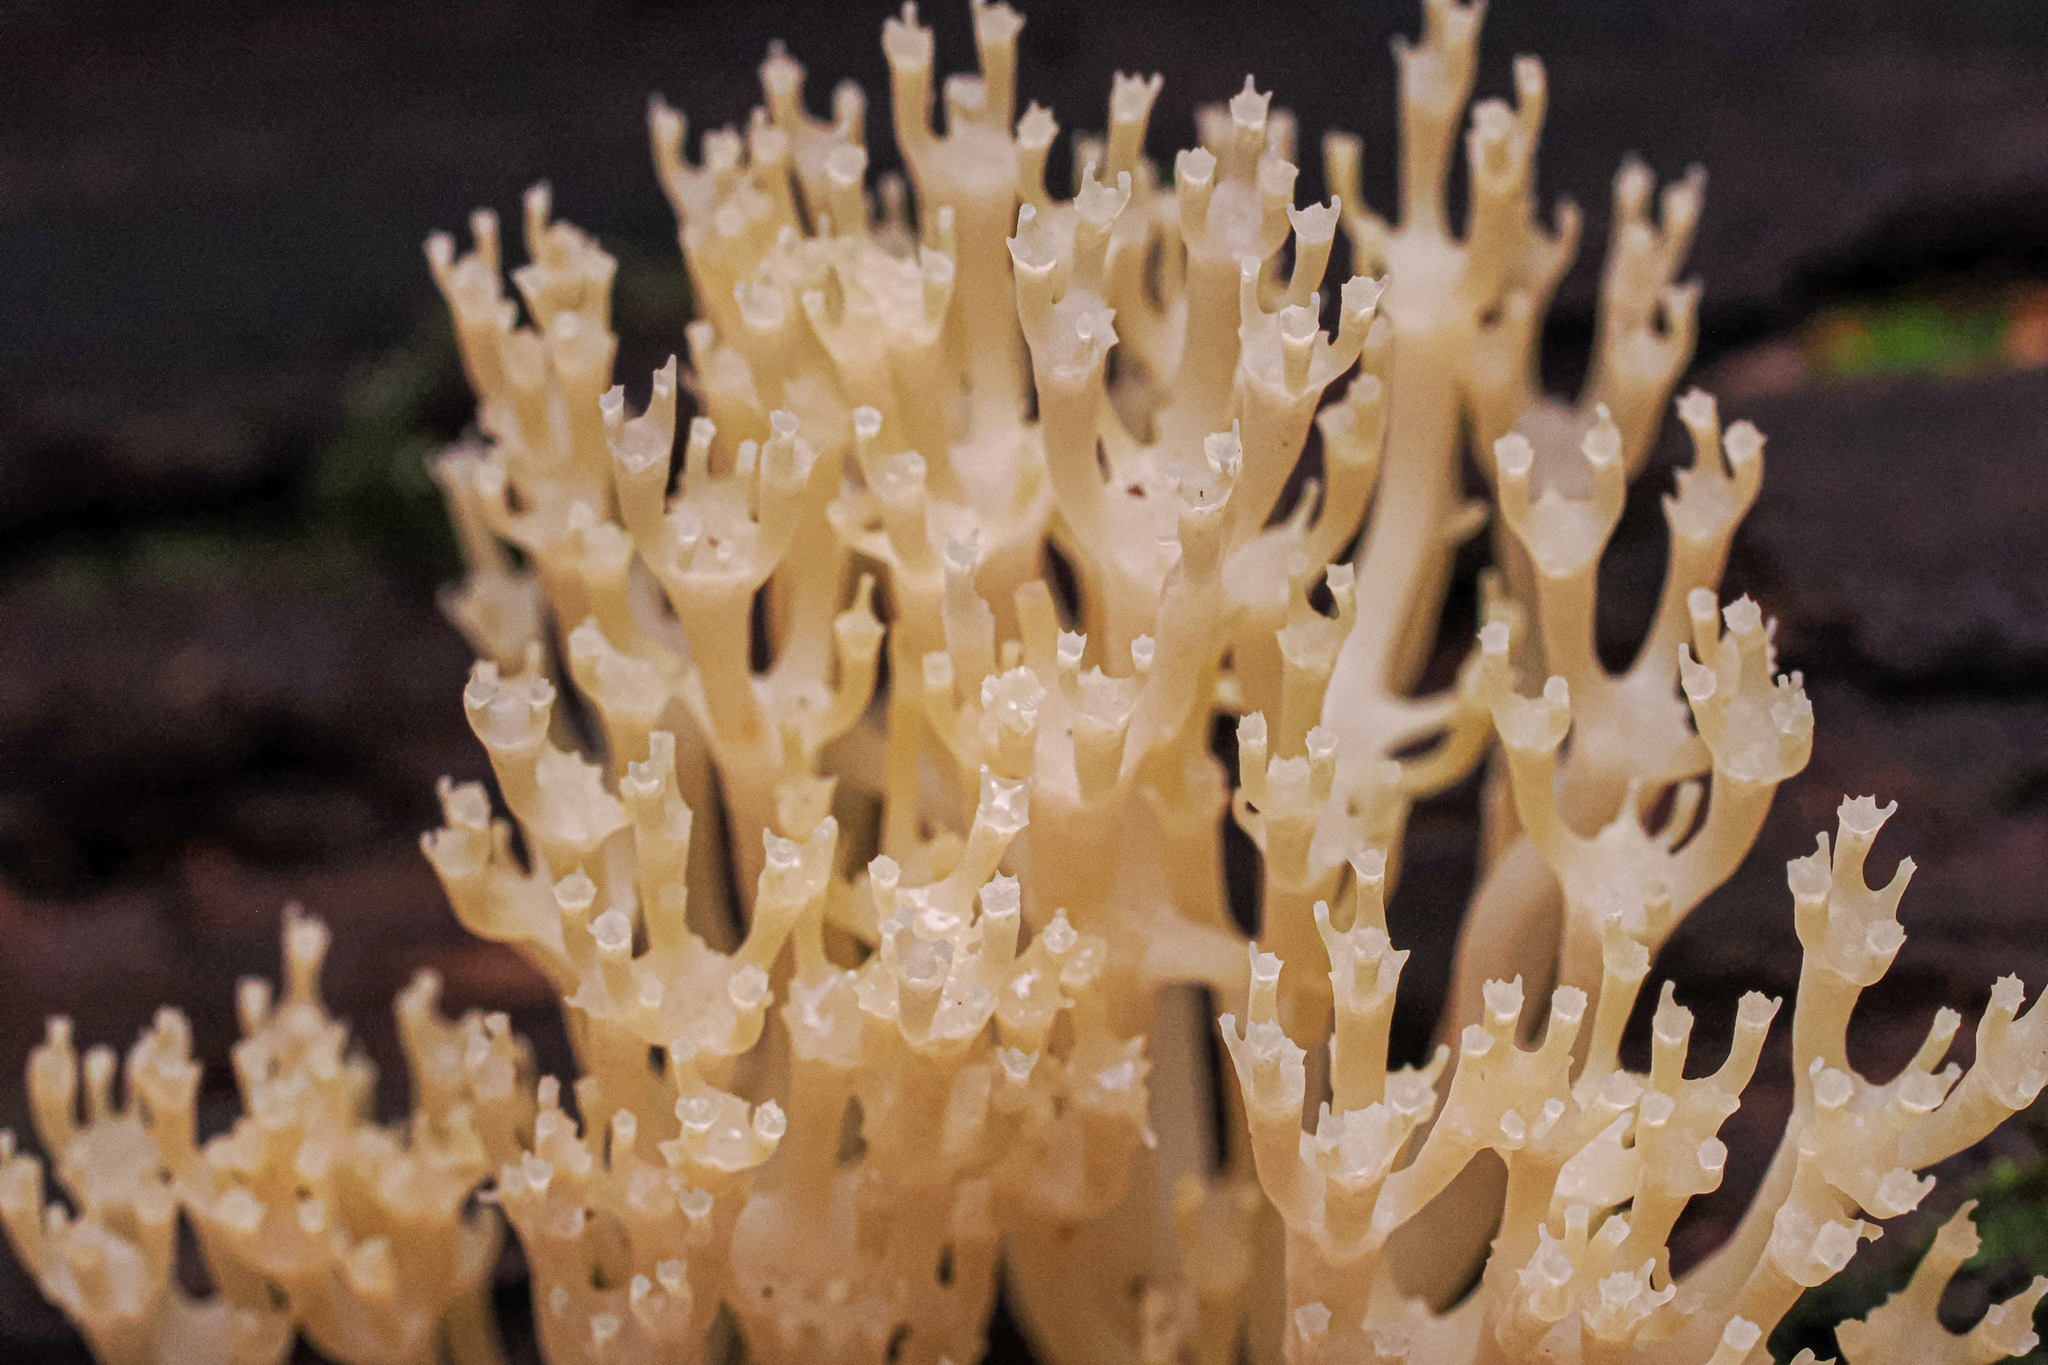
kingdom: Fungi
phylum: Basidiomycota
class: Agaricomycetes
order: Russulales
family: Auriscalpiaceae
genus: Artomyces
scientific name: Artomyces pyxidatus
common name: Crown-tipped coral fungus
